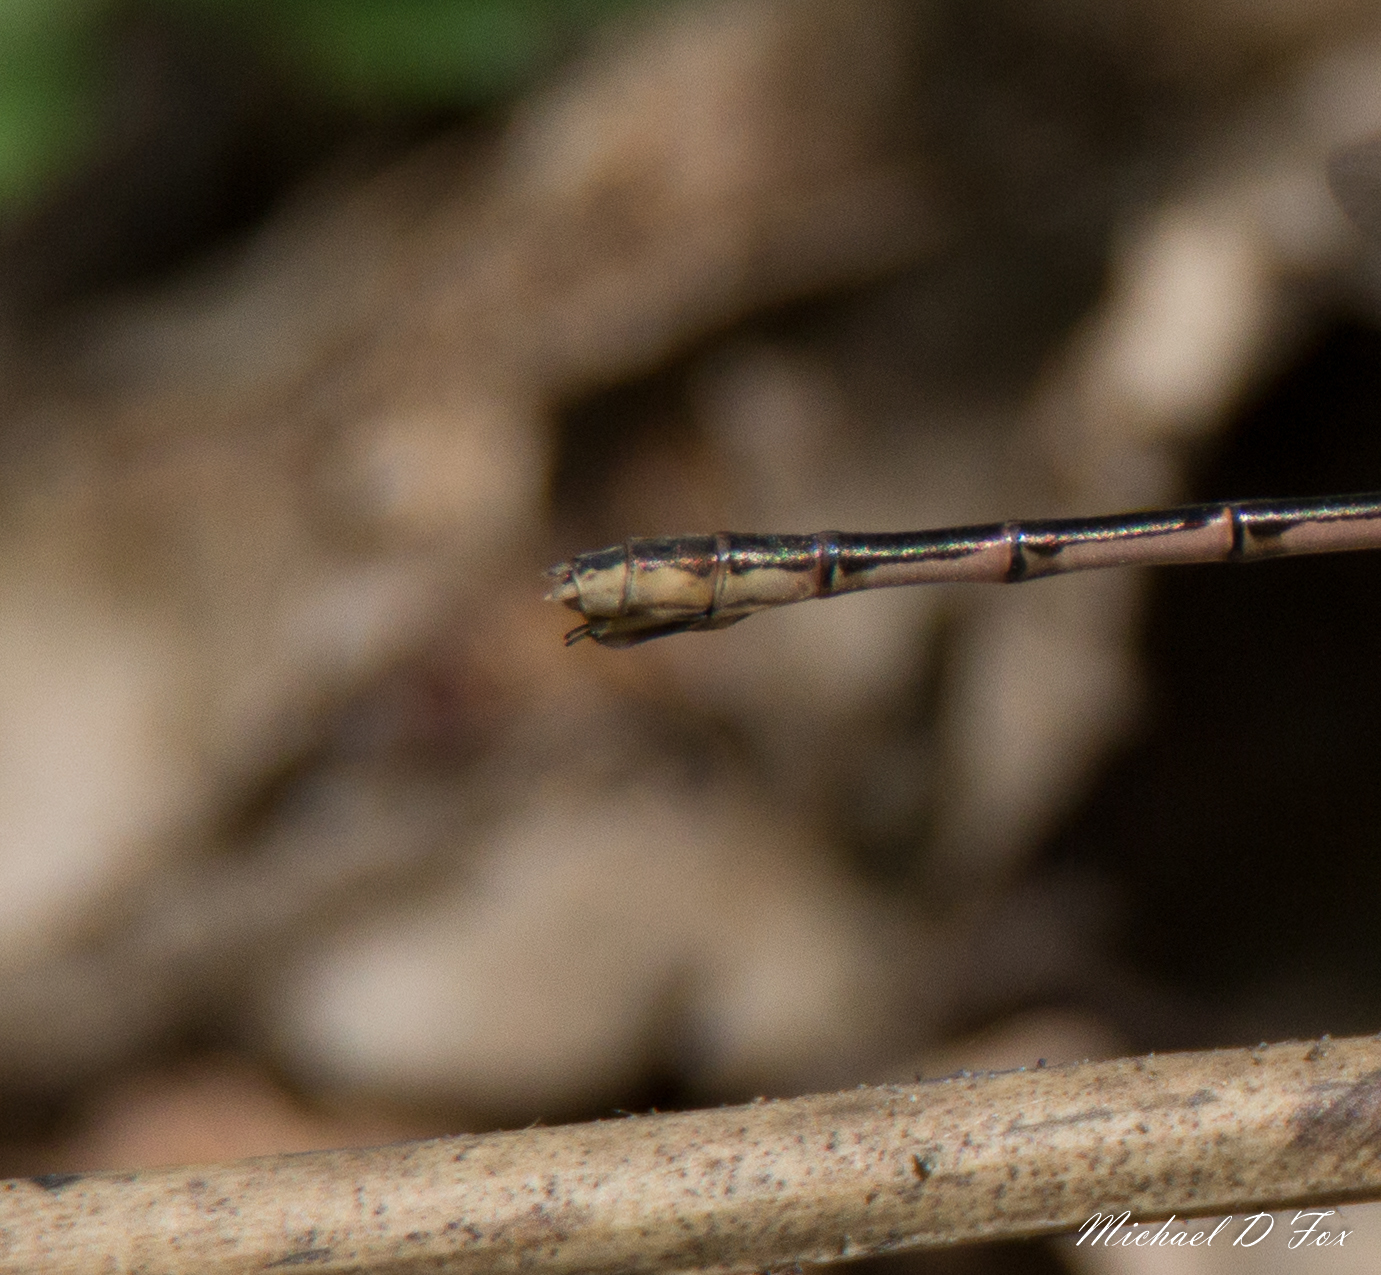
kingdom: Animalia
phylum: Arthropoda
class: Insecta
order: Odonata
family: Lestidae
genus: Lestes
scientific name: Lestes australis
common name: Southern spreadwing
